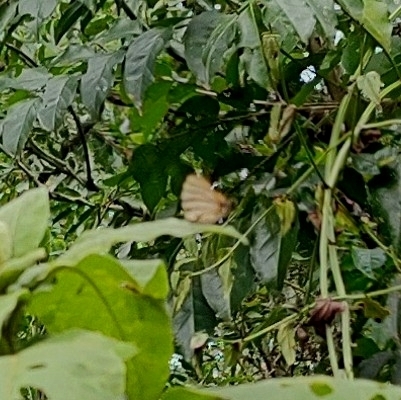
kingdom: Animalia
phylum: Arthropoda
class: Insecta
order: Lepidoptera
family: Lycaenidae
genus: Arawacus
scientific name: Arawacus melibaeus
